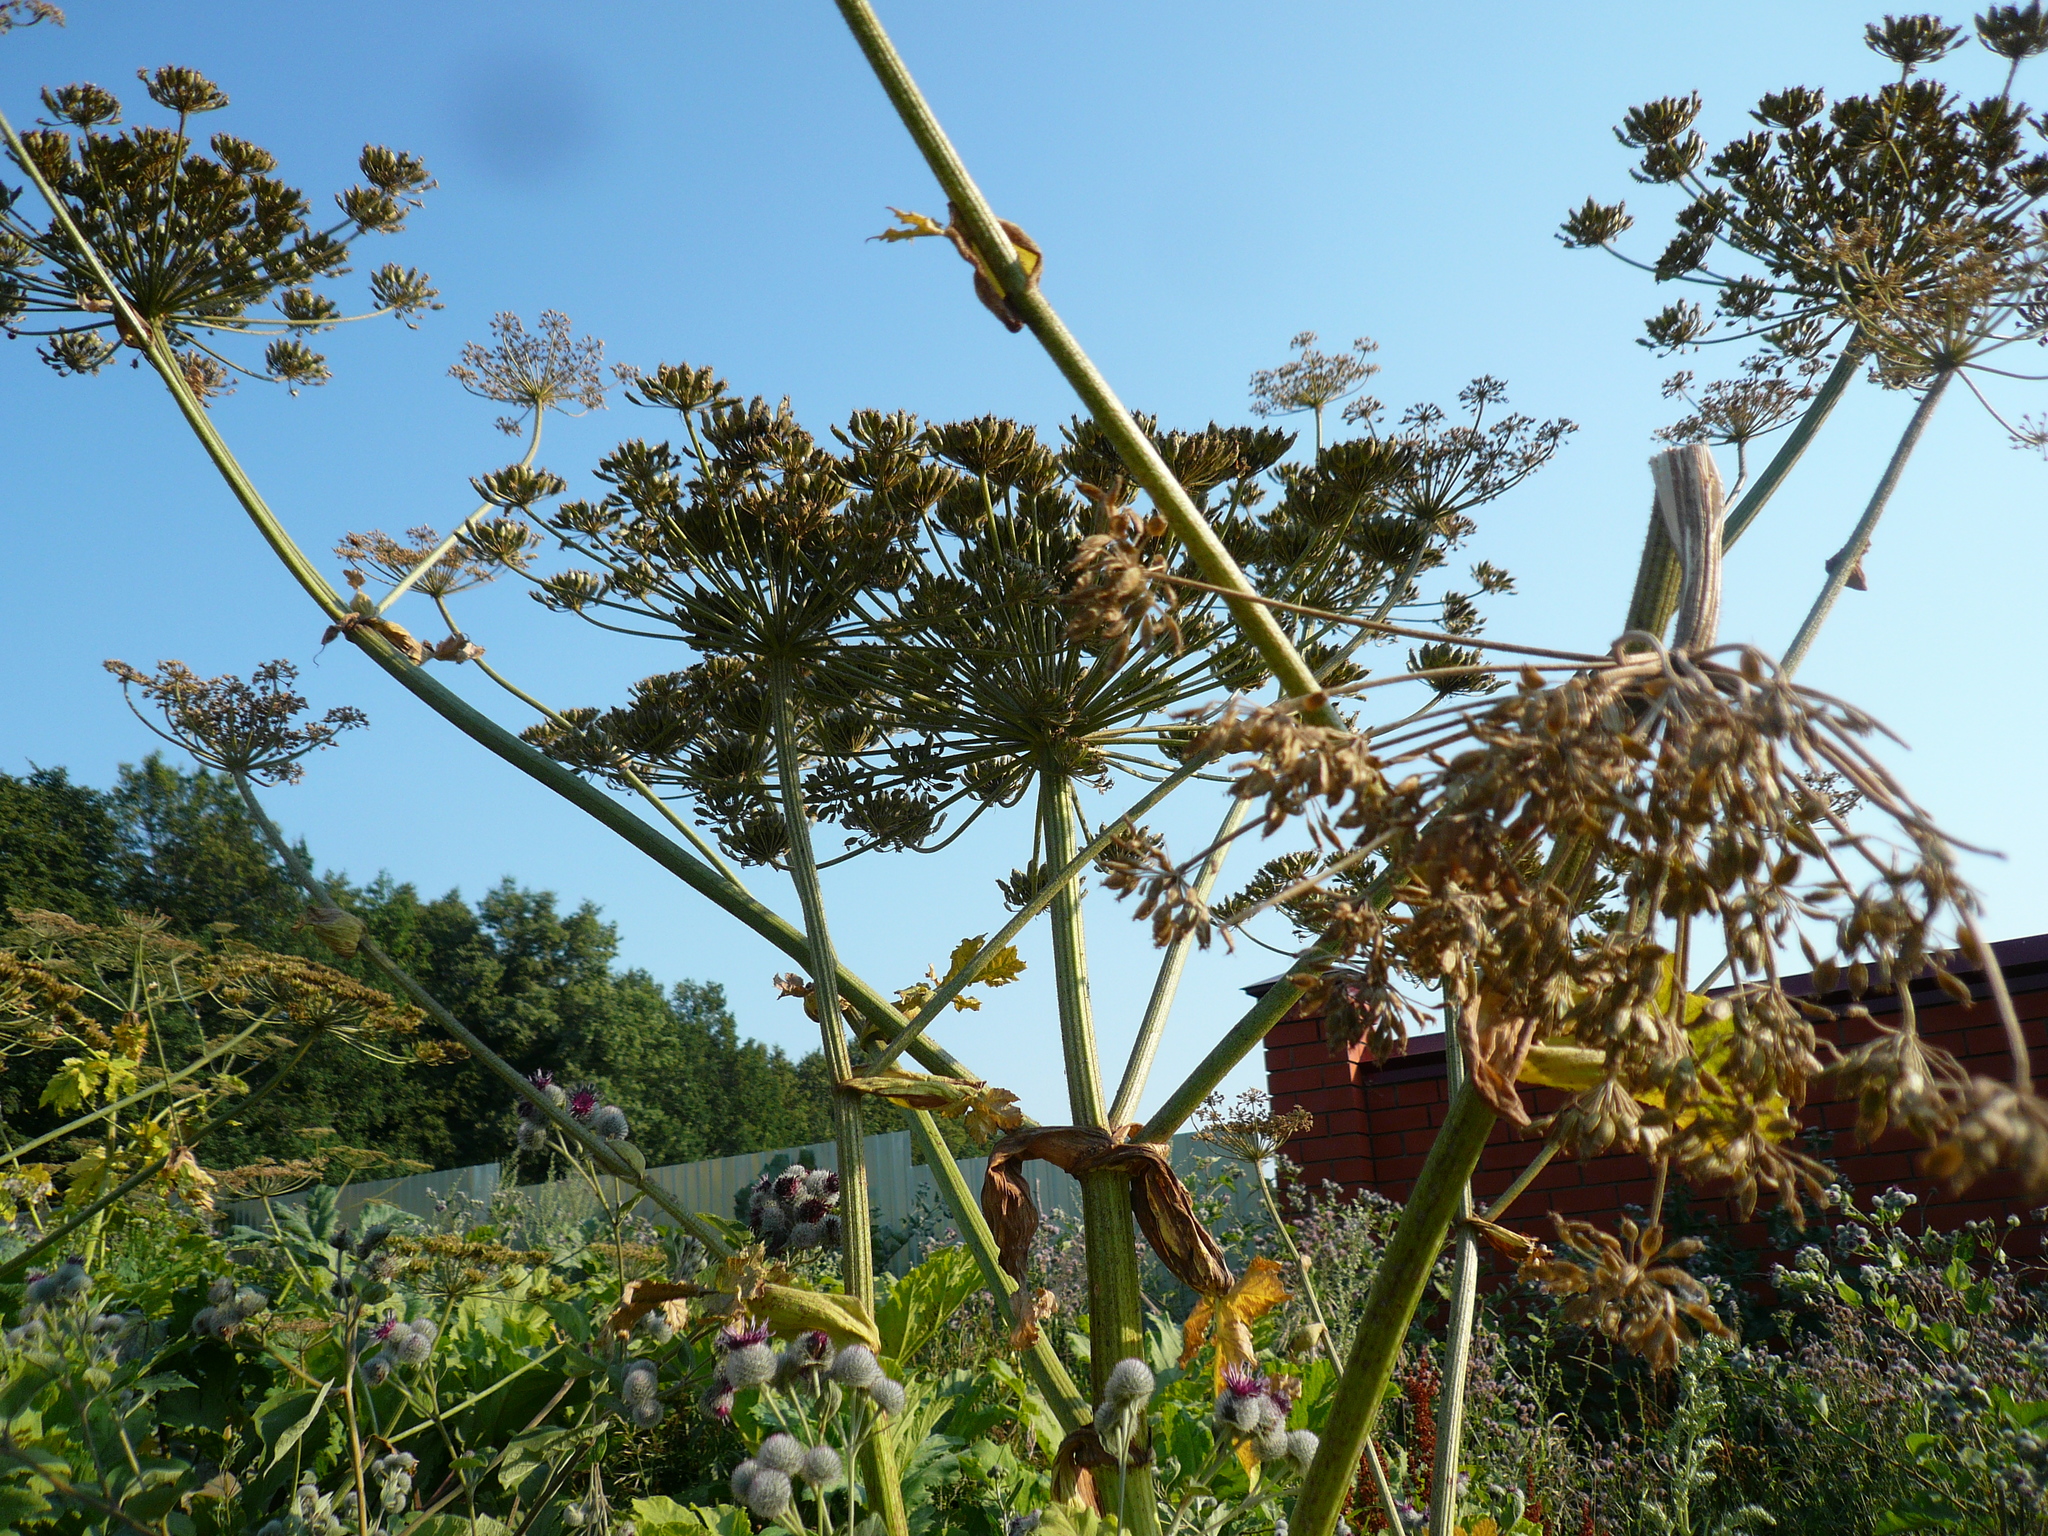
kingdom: Plantae
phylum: Tracheophyta
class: Magnoliopsida
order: Apiales
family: Apiaceae
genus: Heracleum
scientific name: Heracleum sosnowskyi
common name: Sosnowsky's hogweed
